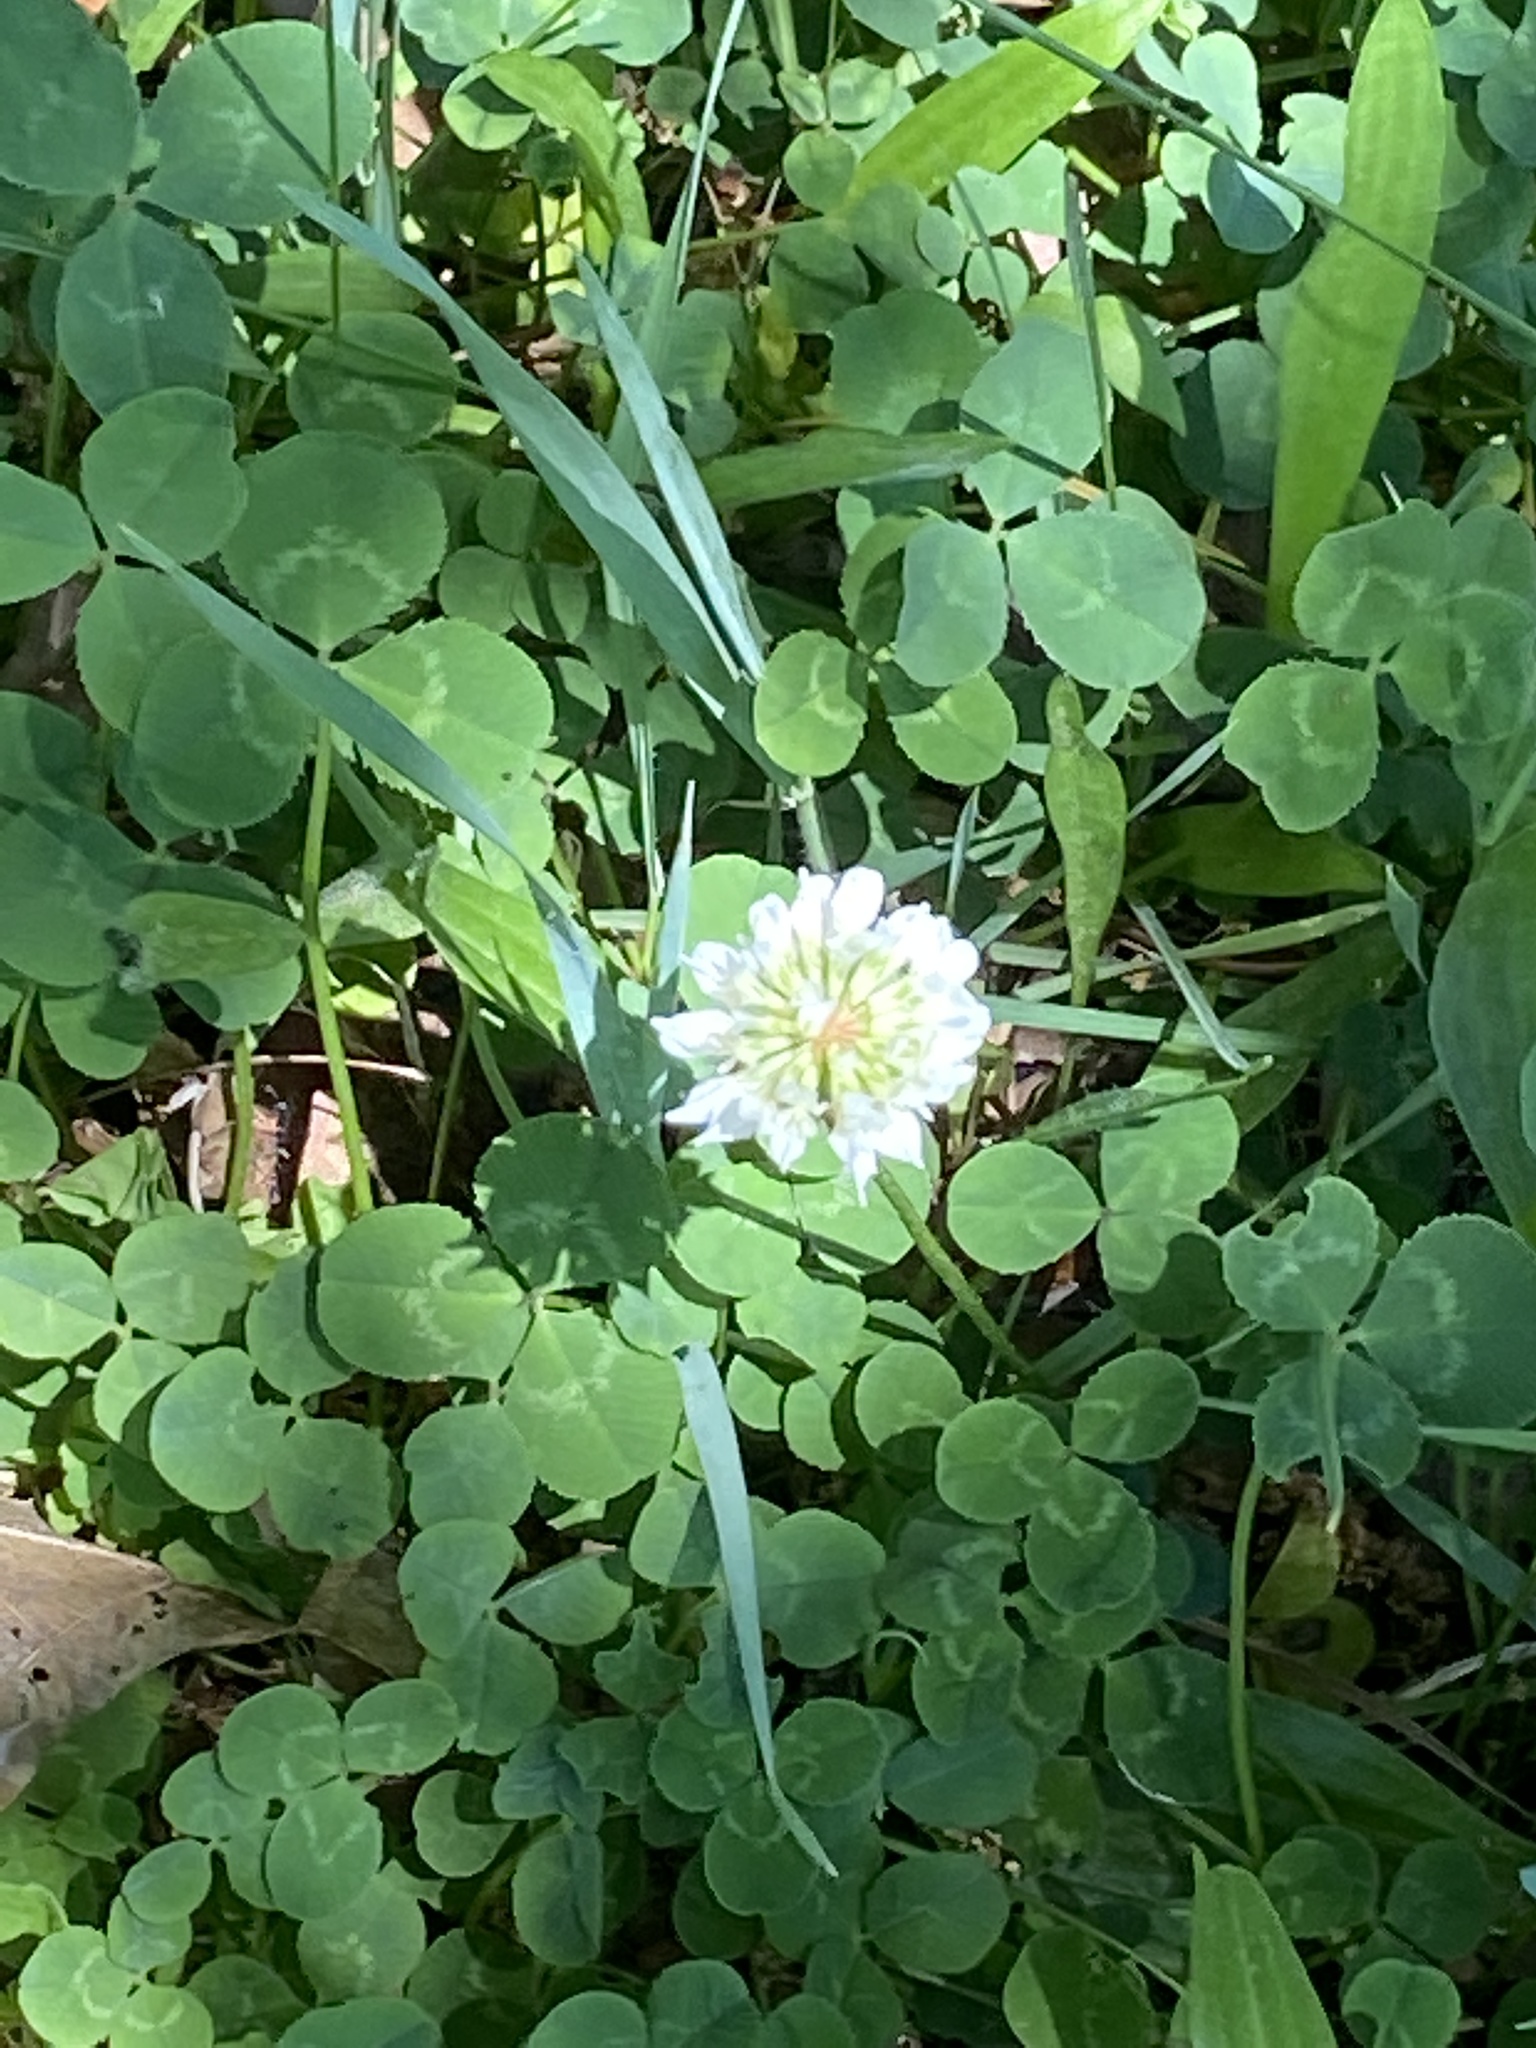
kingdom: Plantae
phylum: Tracheophyta
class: Magnoliopsida
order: Fabales
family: Fabaceae
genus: Trifolium
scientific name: Trifolium repens
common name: White clover
